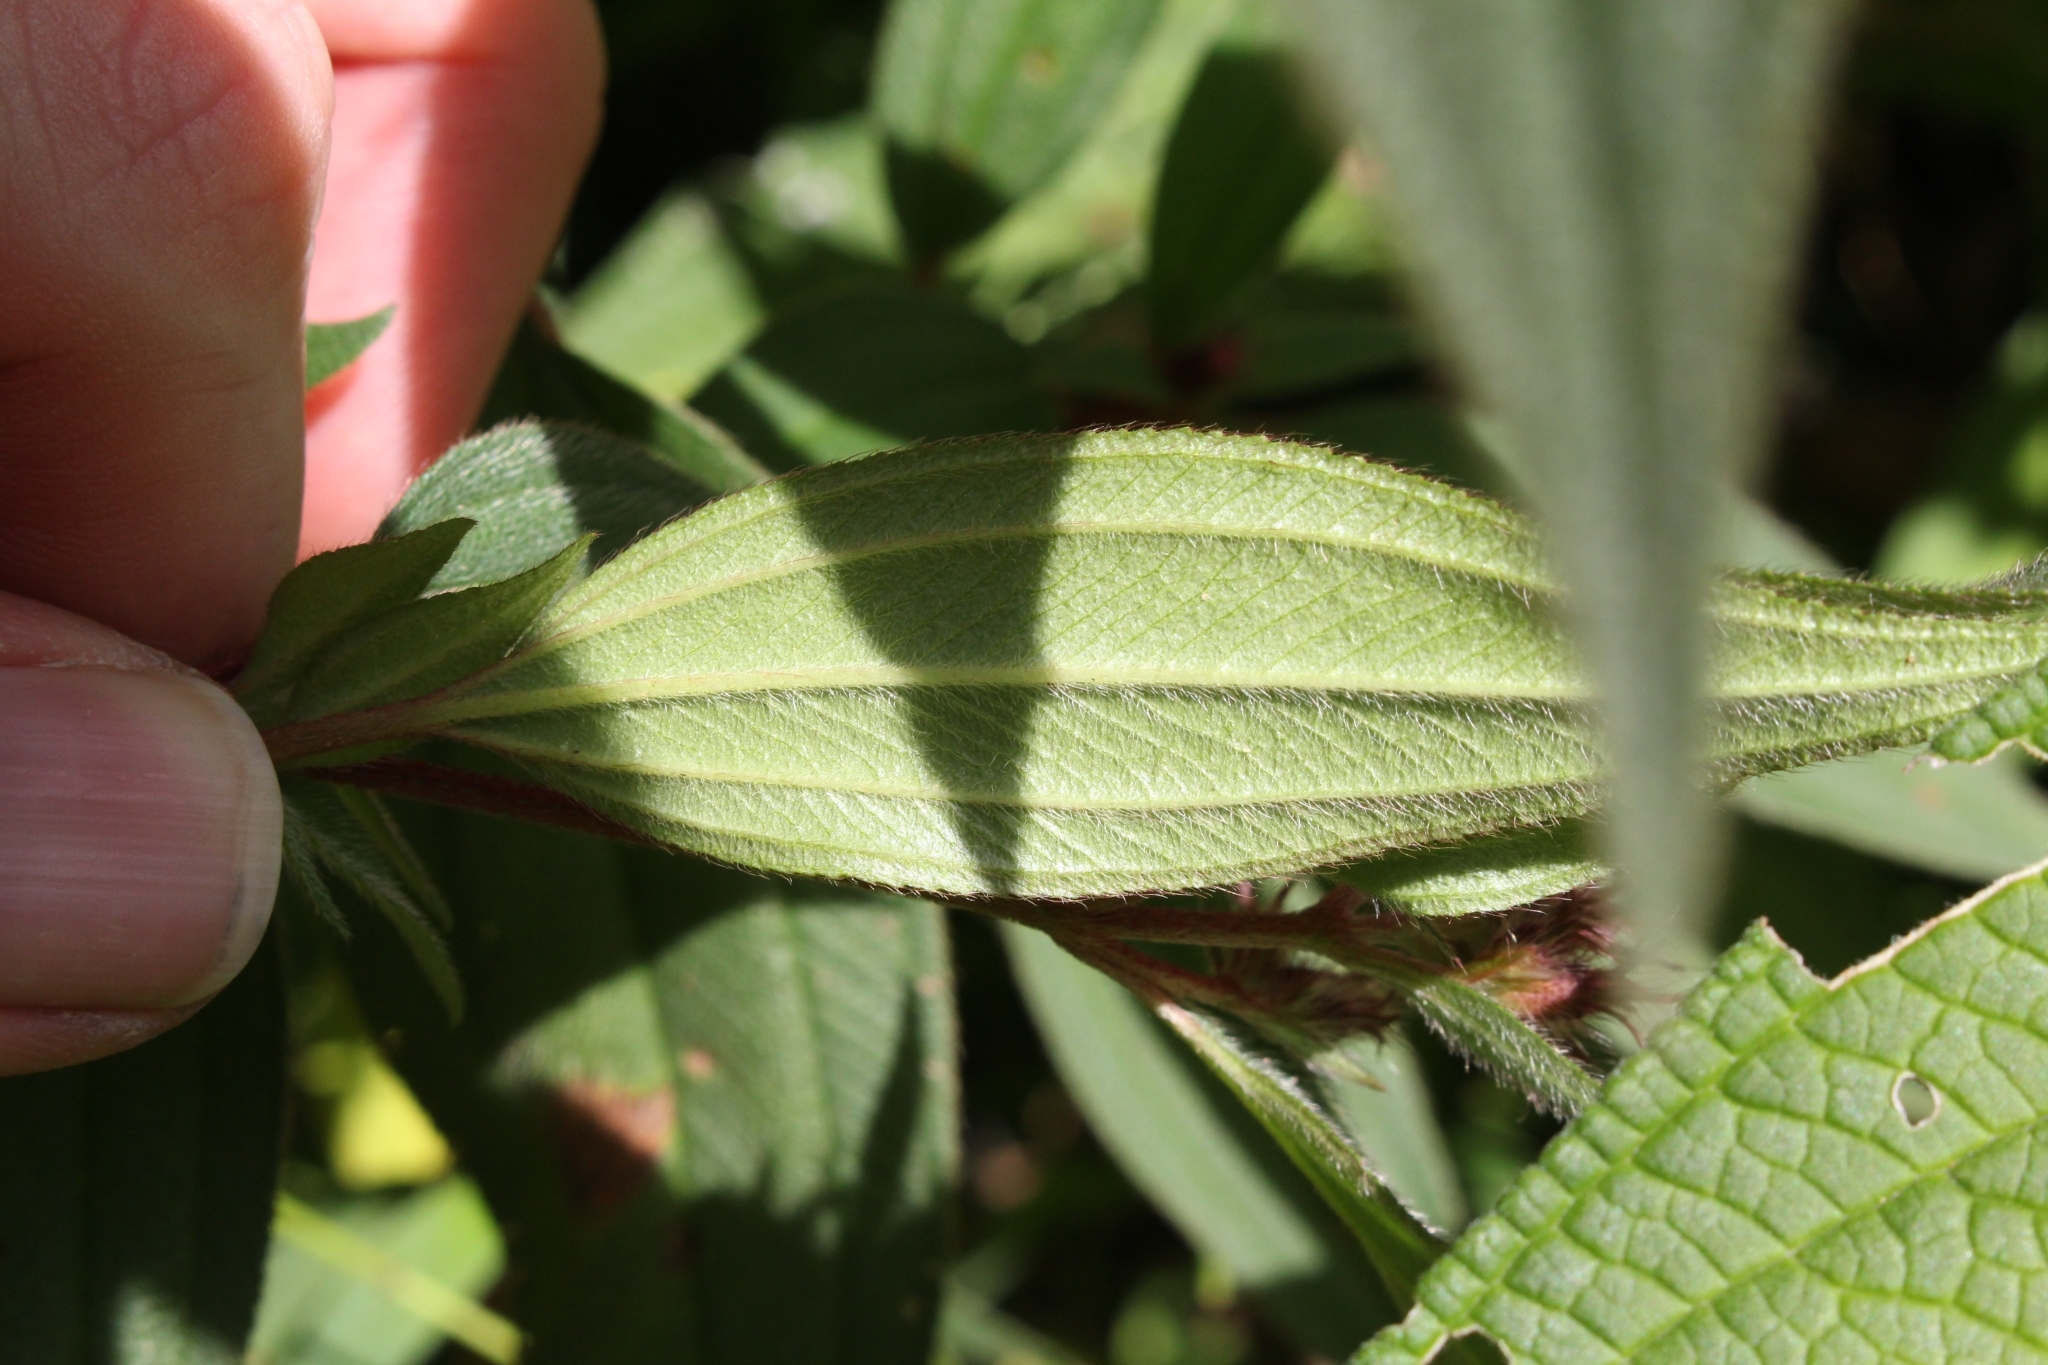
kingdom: Plantae
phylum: Tracheophyta
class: Magnoliopsida
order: Myrtales
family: Melastomataceae
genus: Chaetogastra
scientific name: Chaetogastra naudiniana
